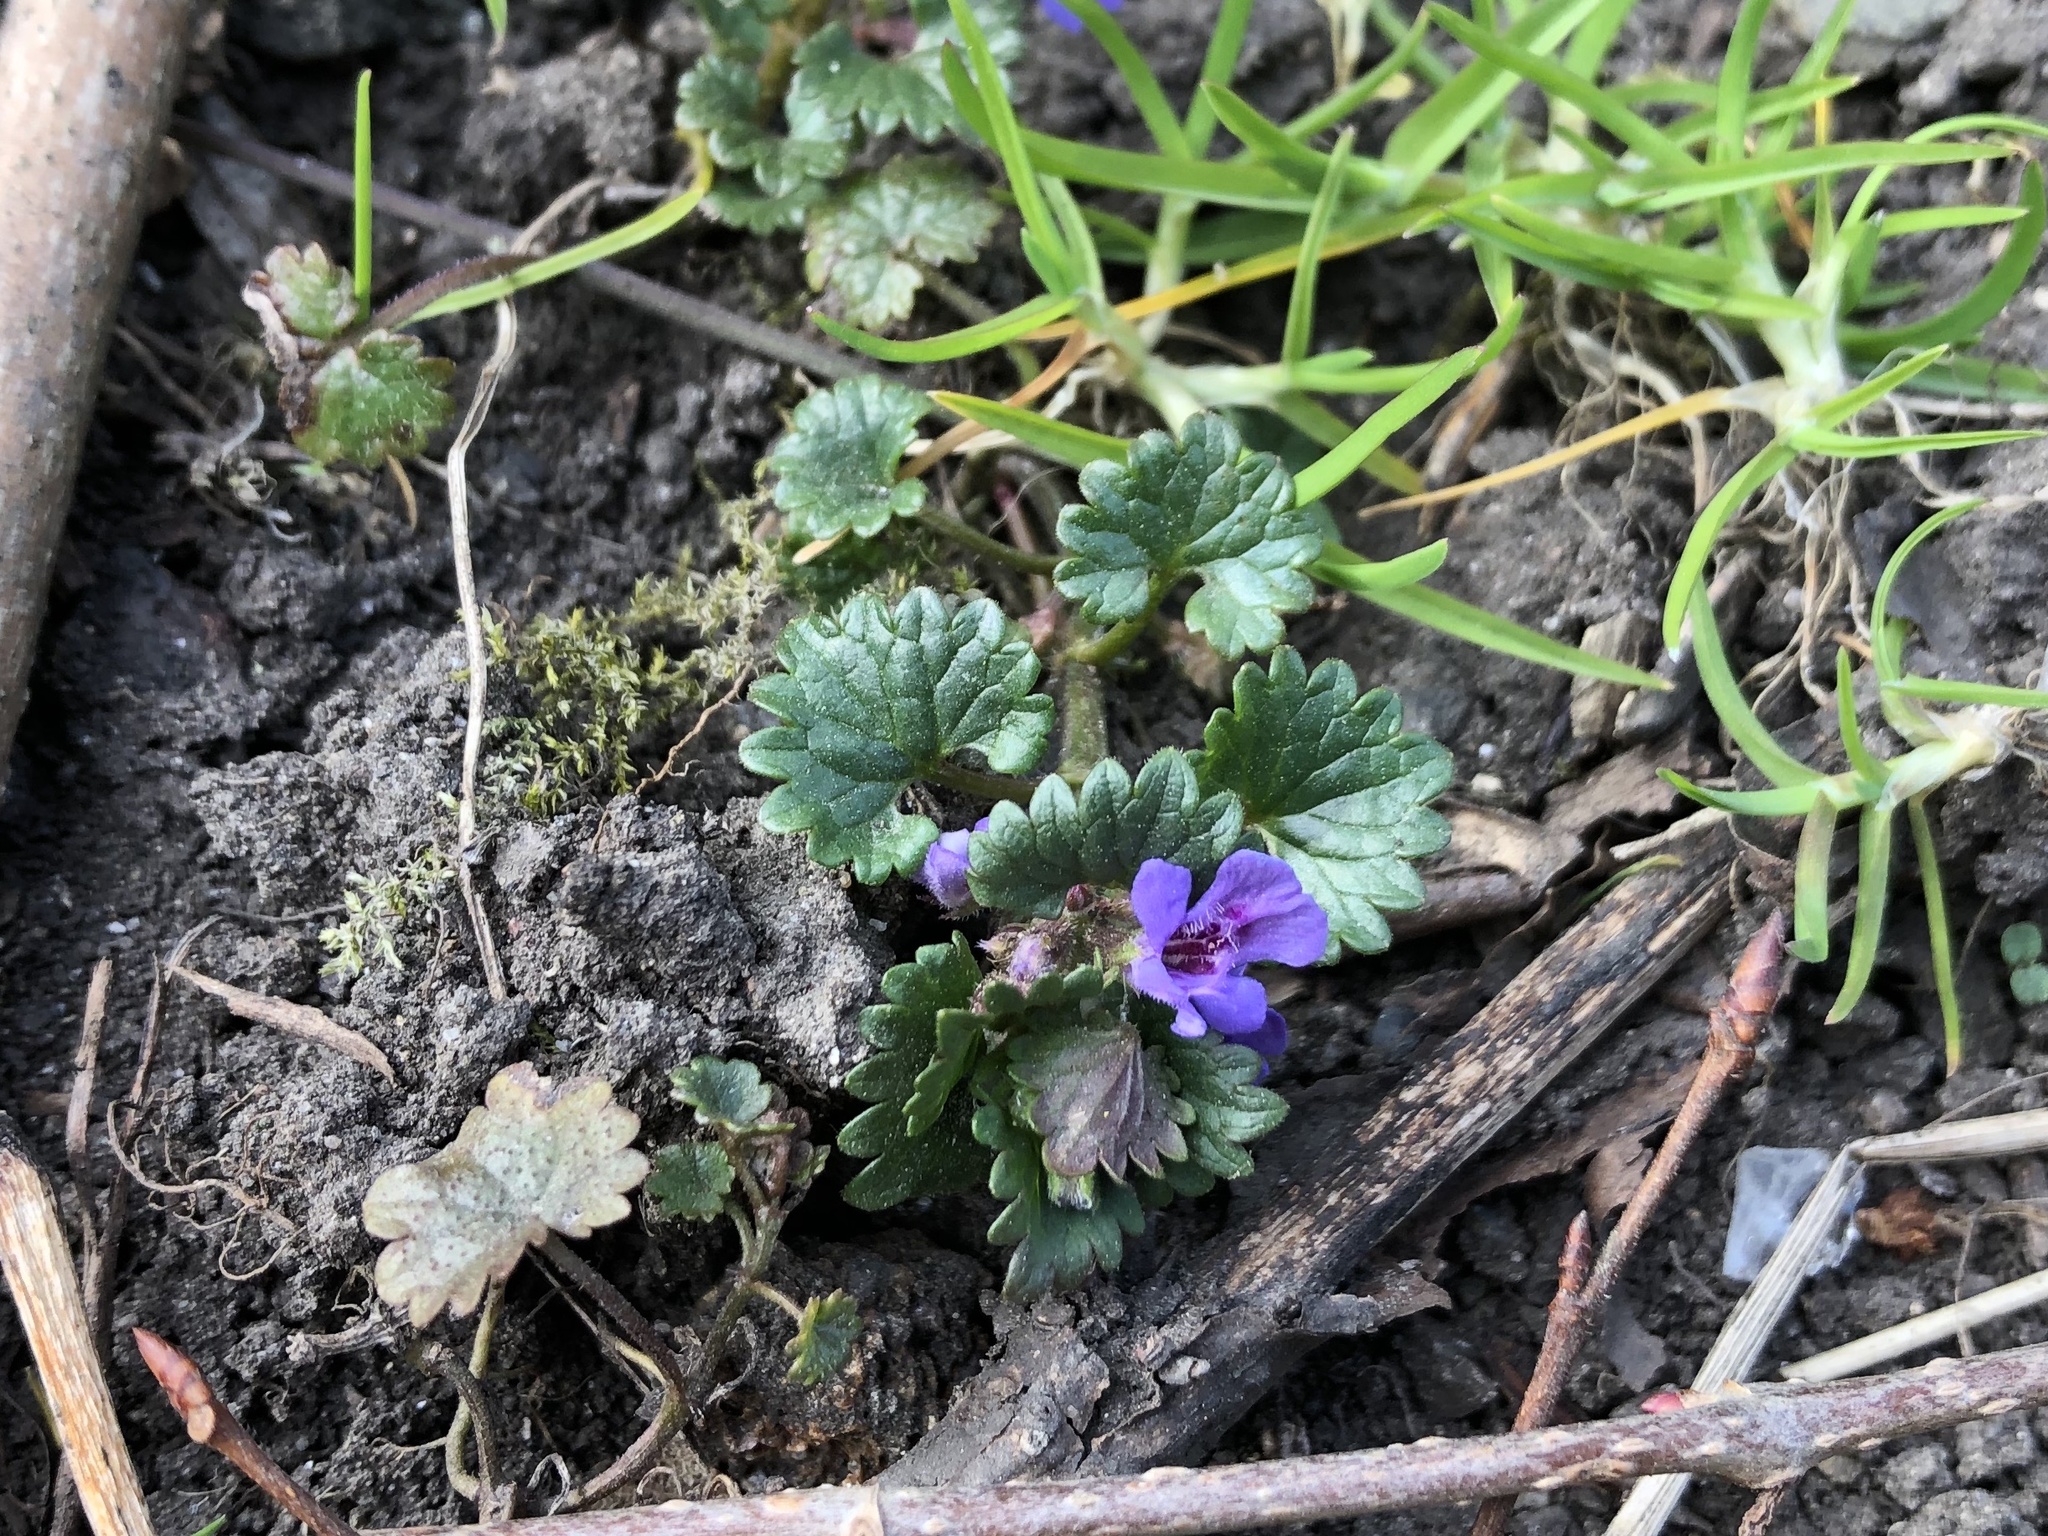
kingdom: Plantae
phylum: Tracheophyta
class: Magnoliopsida
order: Lamiales
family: Lamiaceae
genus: Glechoma
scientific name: Glechoma hederacea
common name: Ground ivy
